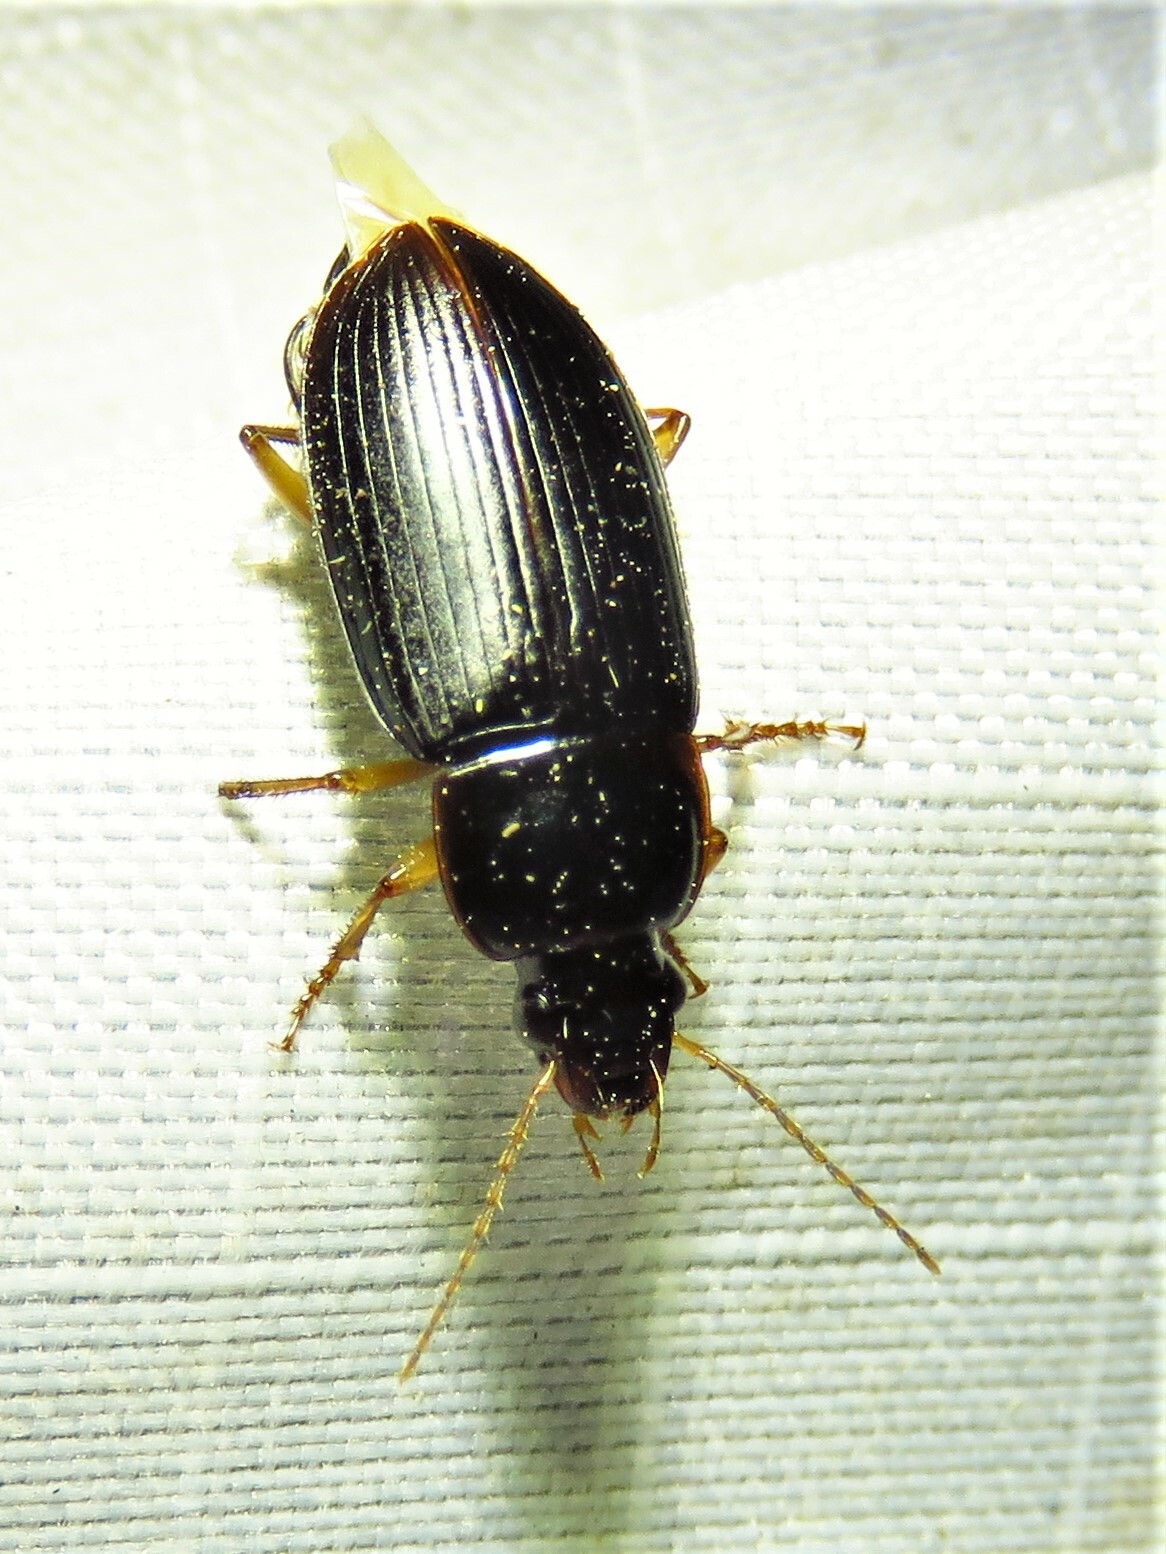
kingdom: Animalia
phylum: Arthropoda
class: Insecta
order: Coleoptera
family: Carabidae
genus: Notiobia
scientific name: Notiobia terminata
